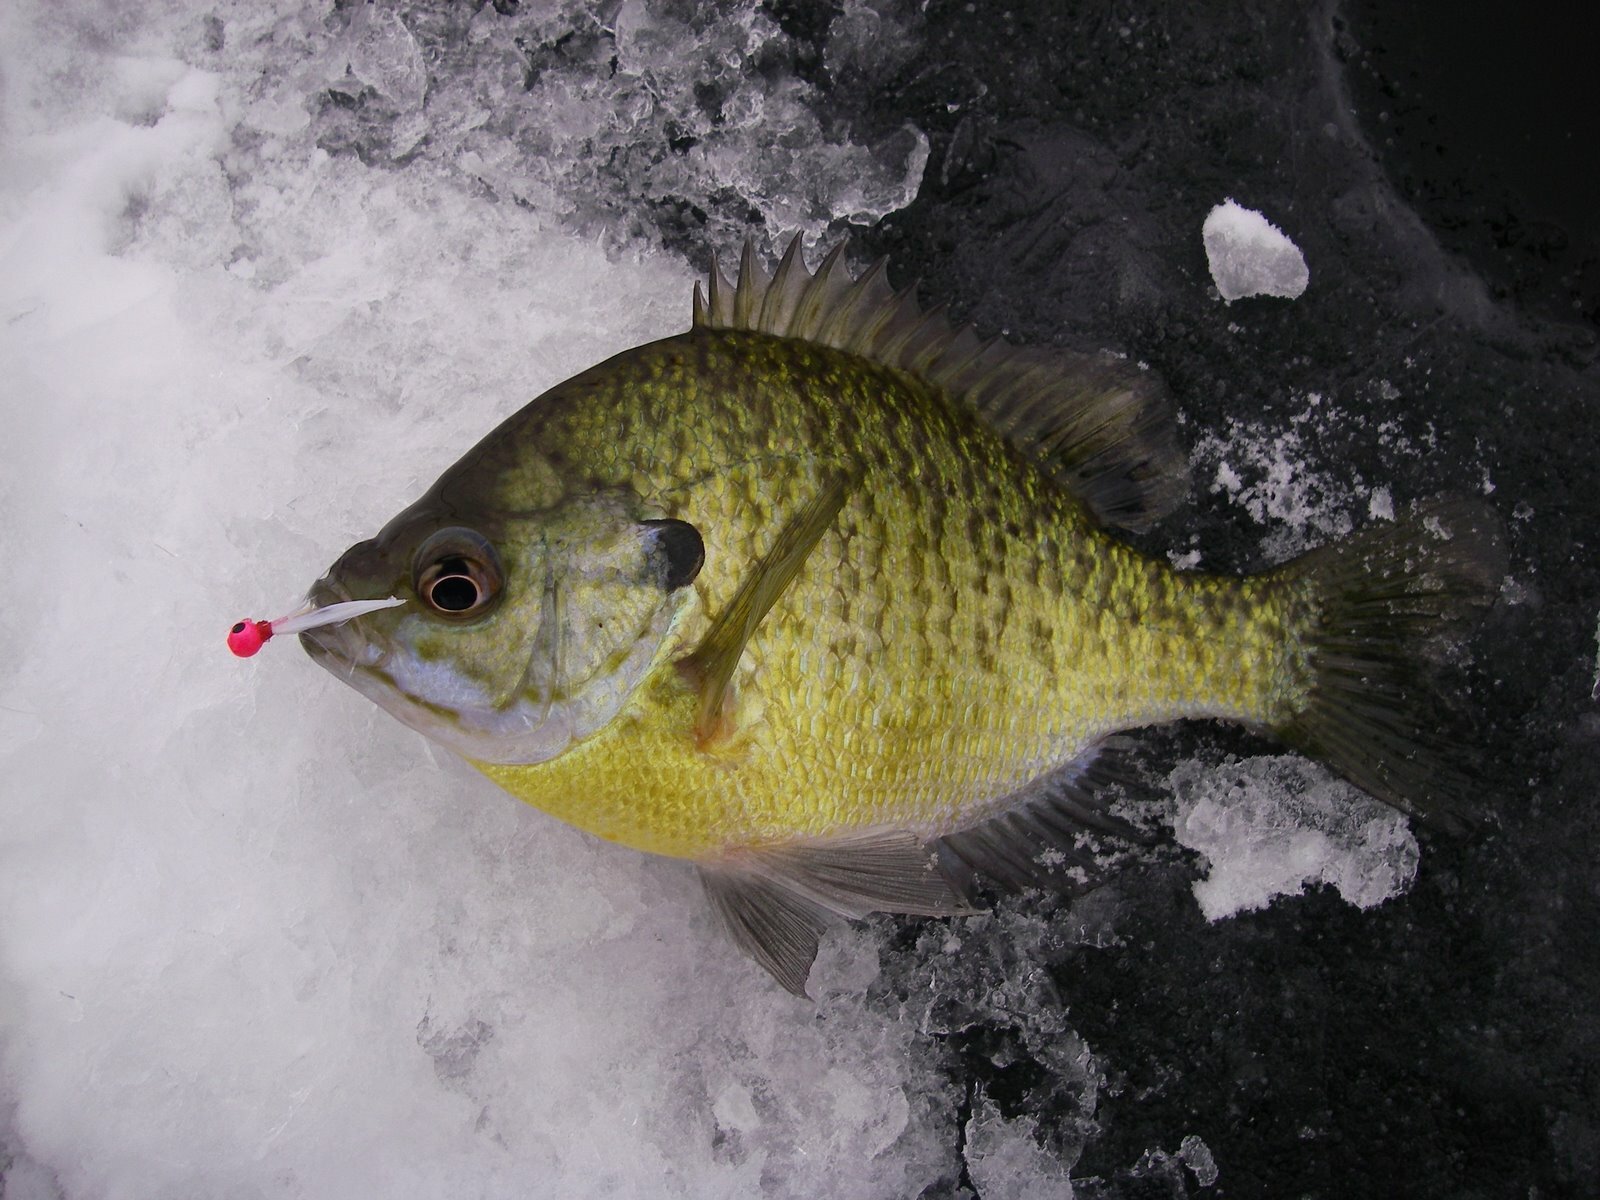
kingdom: Animalia
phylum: Chordata
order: Perciformes
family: Centrarchidae
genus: Lepomis
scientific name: Lepomis macrochirus
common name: Bluegill
